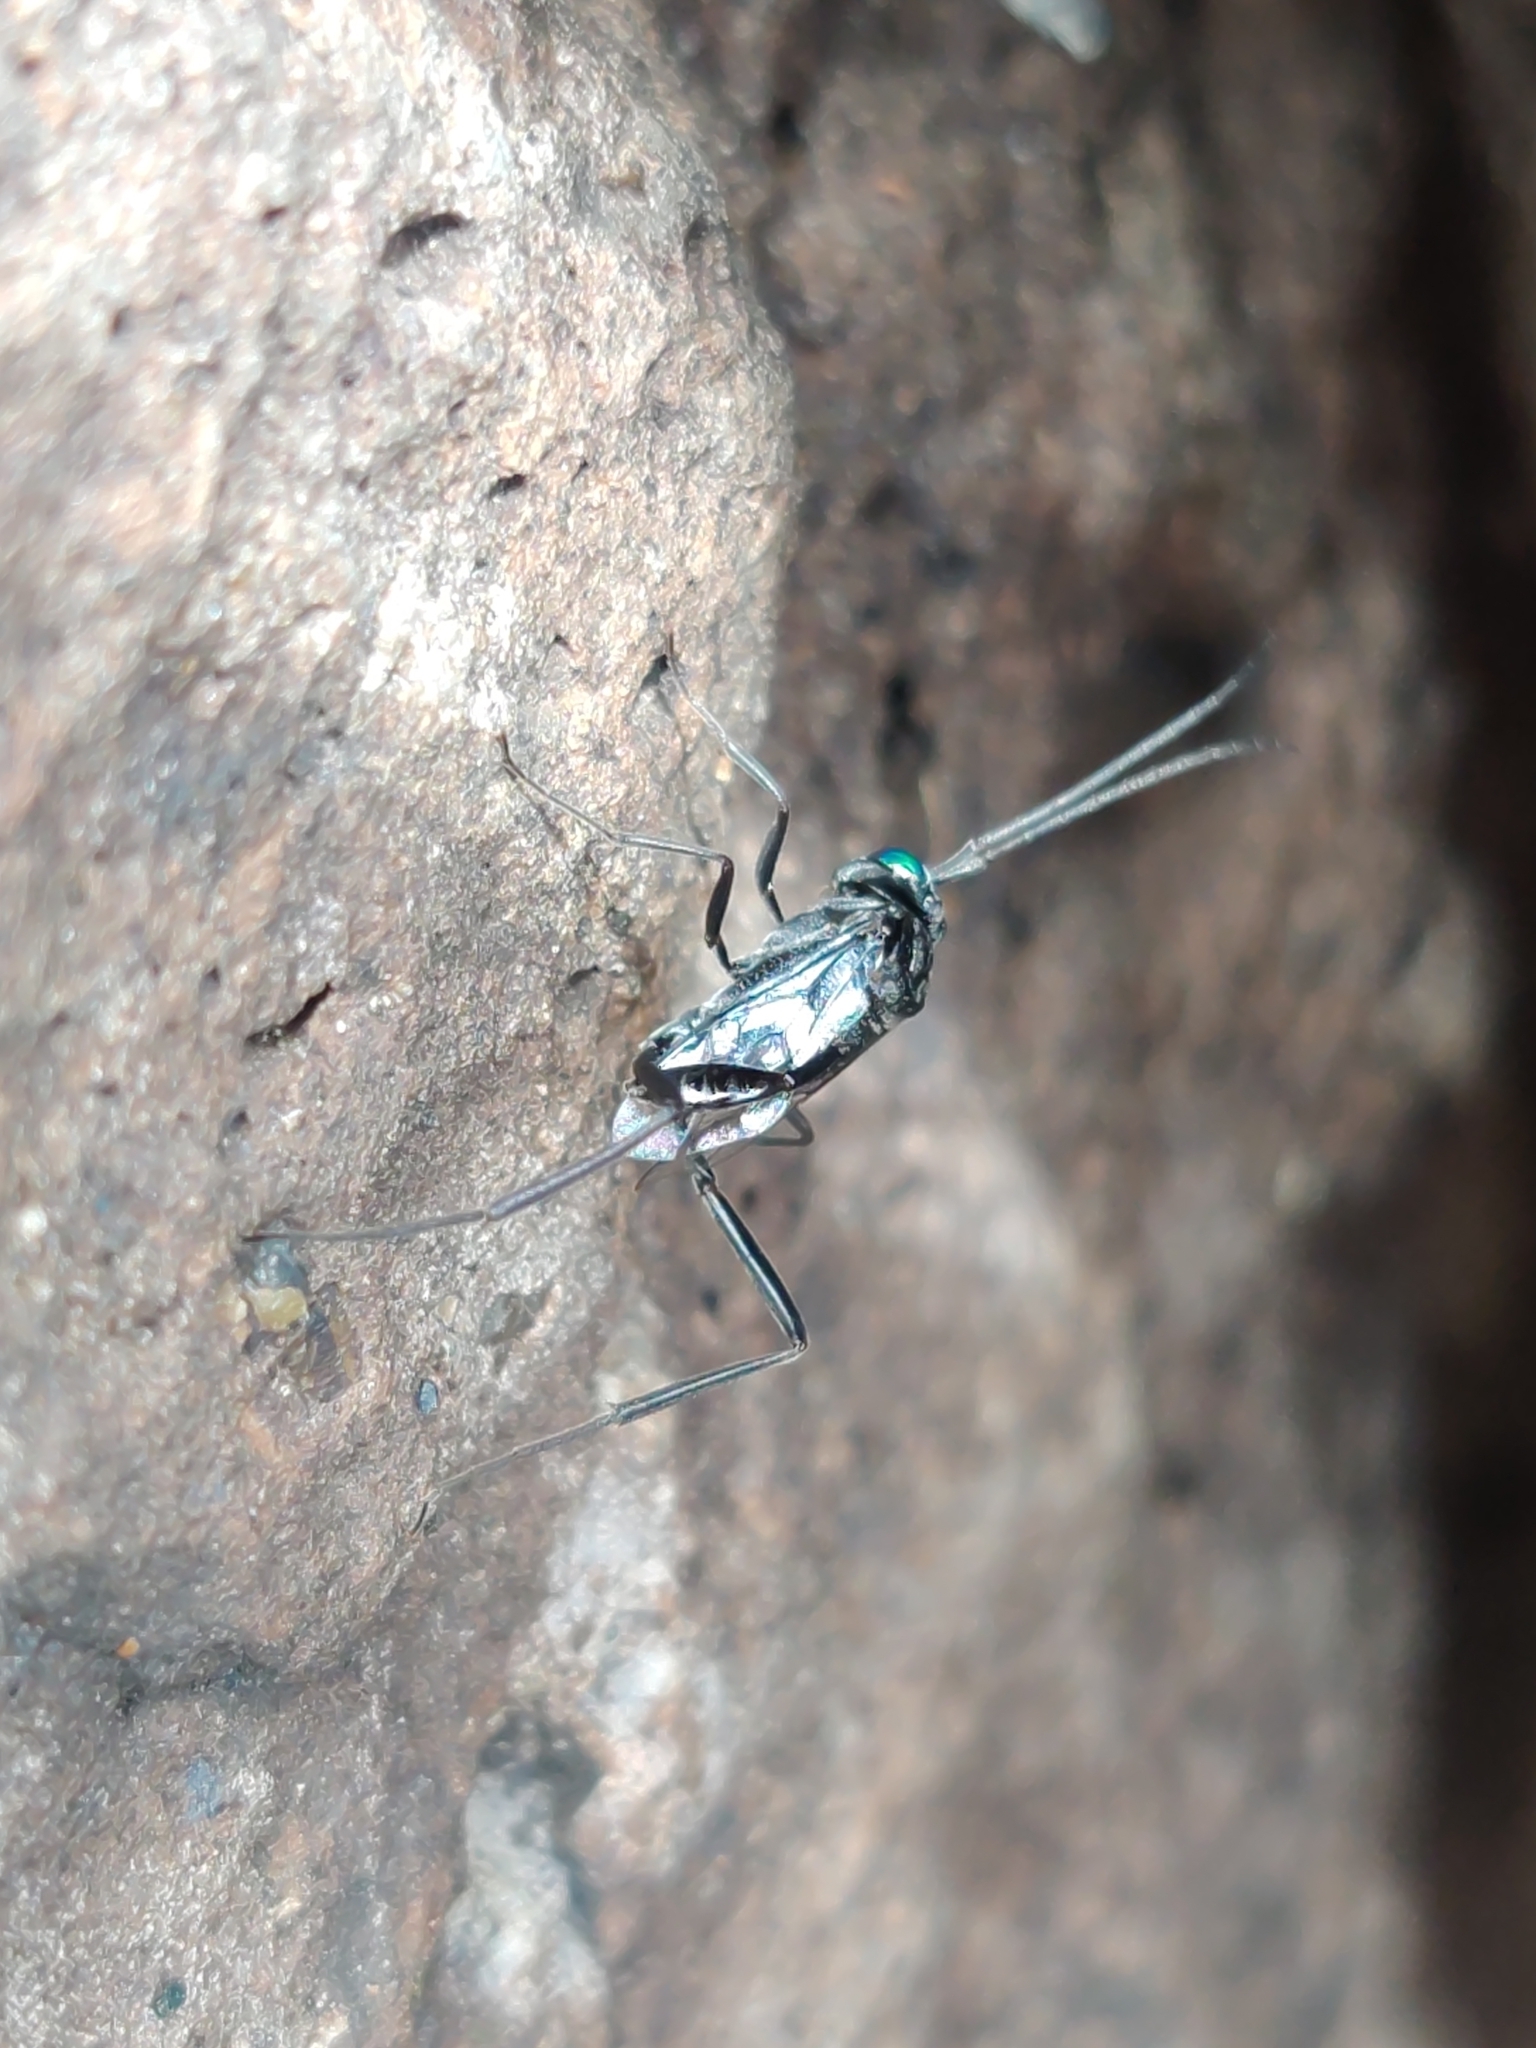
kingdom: Animalia
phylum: Arthropoda
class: Insecta
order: Hymenoptera
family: Evaniidae
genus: Evania
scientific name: Evania appendigaster
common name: Ensign wasp
